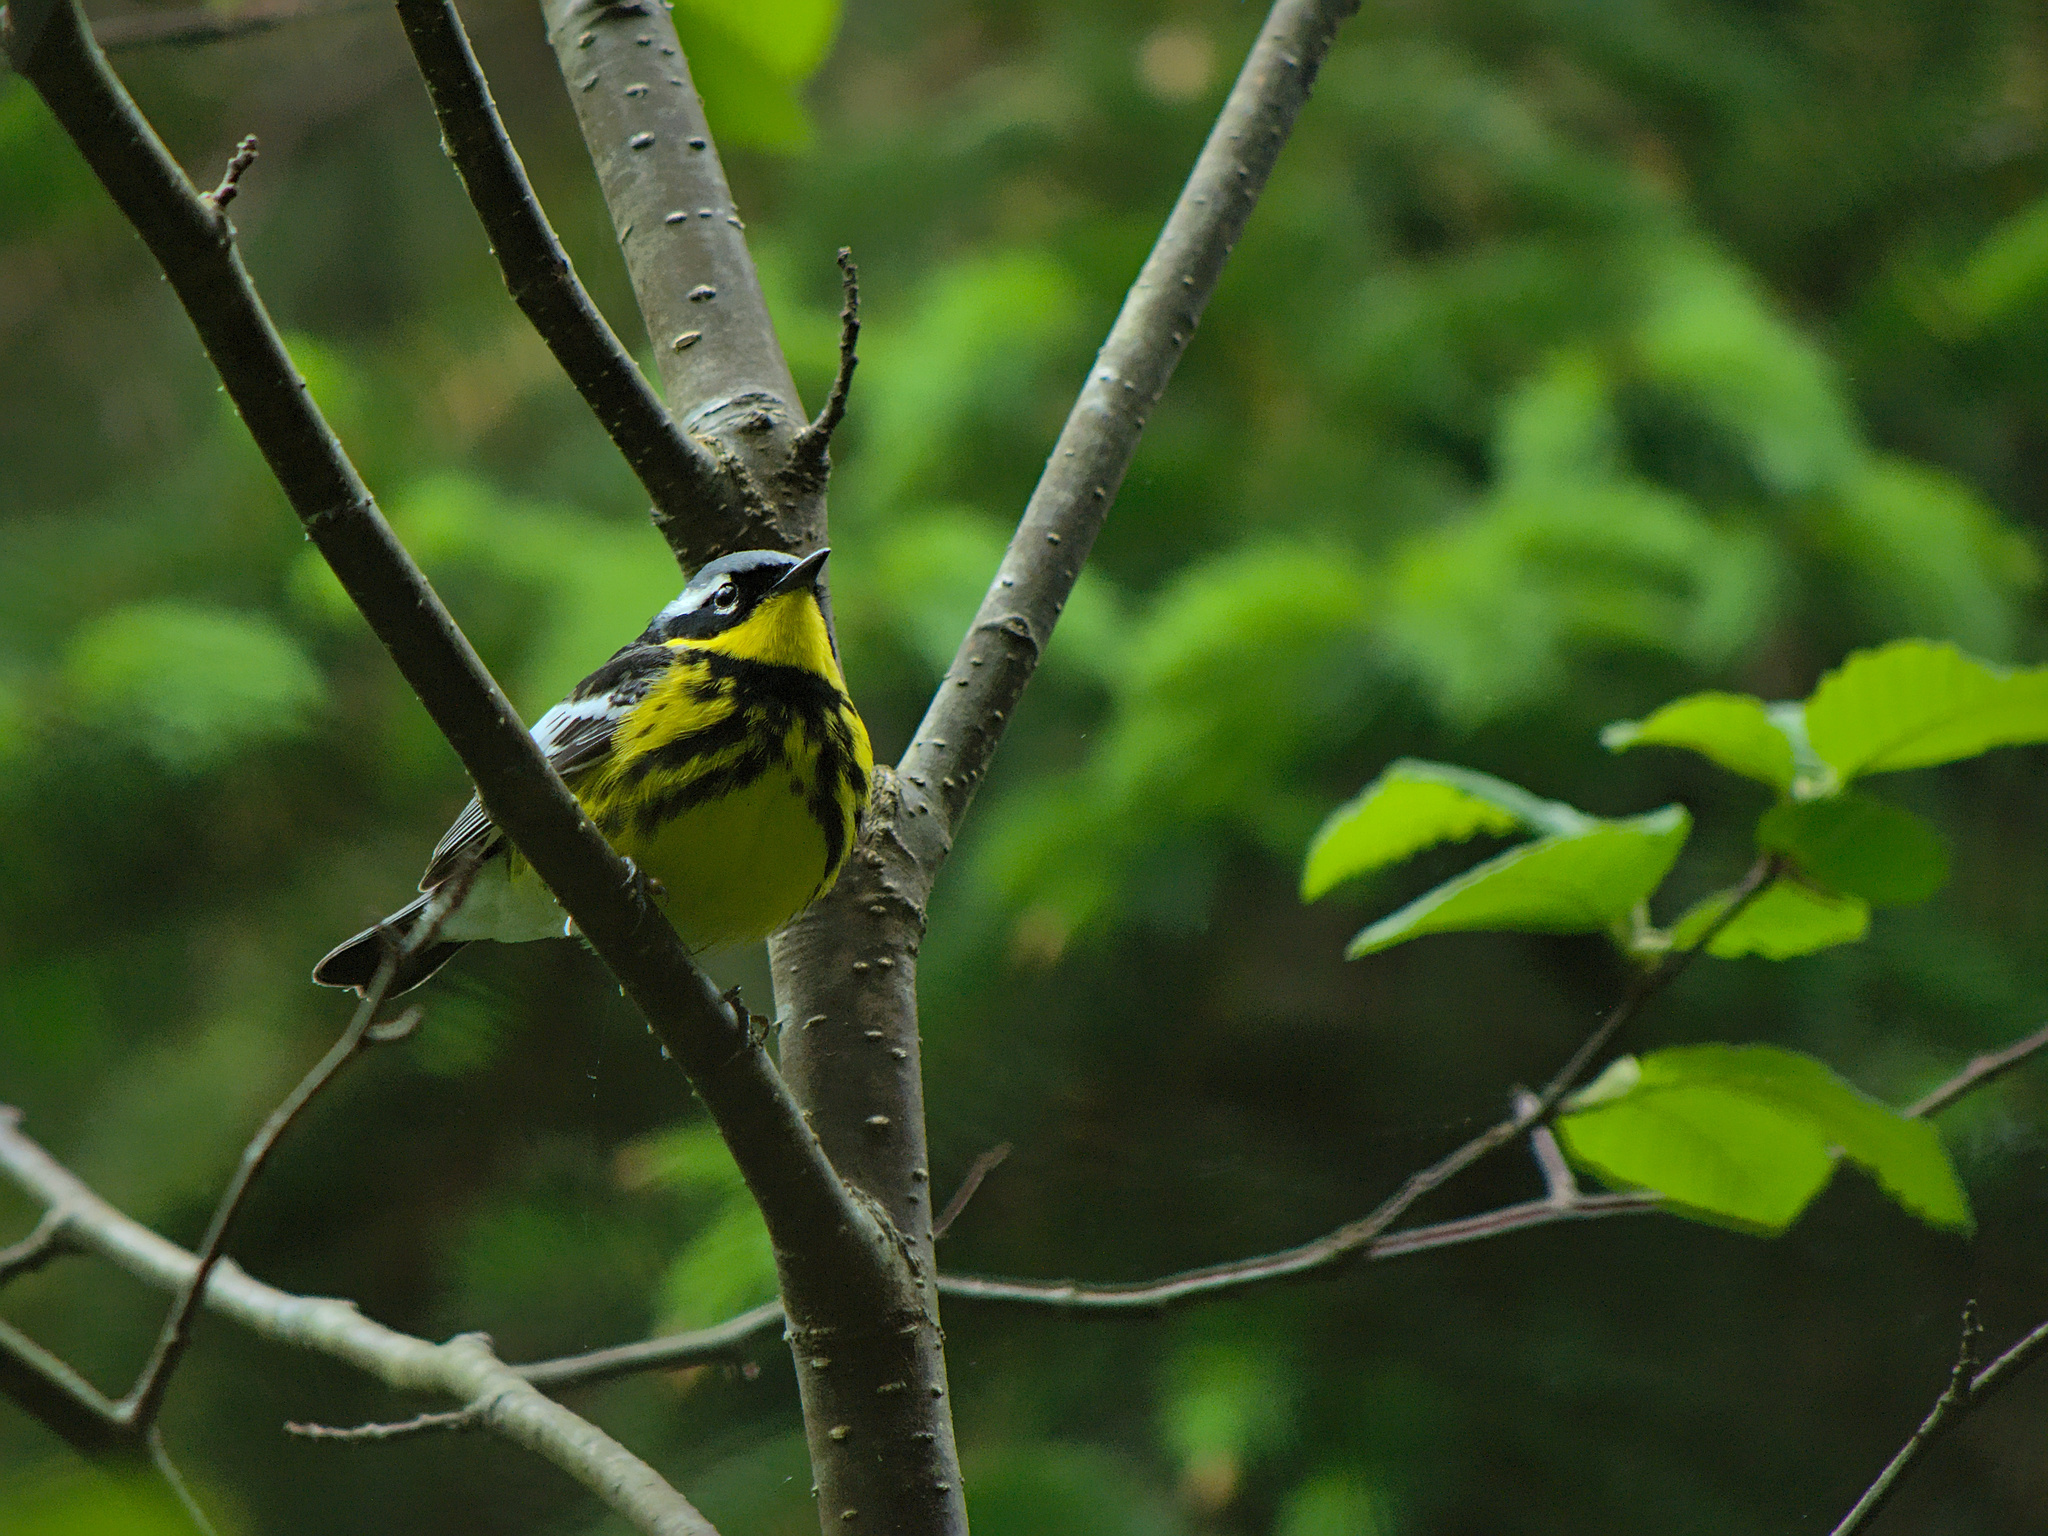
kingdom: Animalia
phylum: Chordata
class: Aves
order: Passeriformes
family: Parulidae
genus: Setophaga
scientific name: Setophaga magnolia
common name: Magnolia warbler
